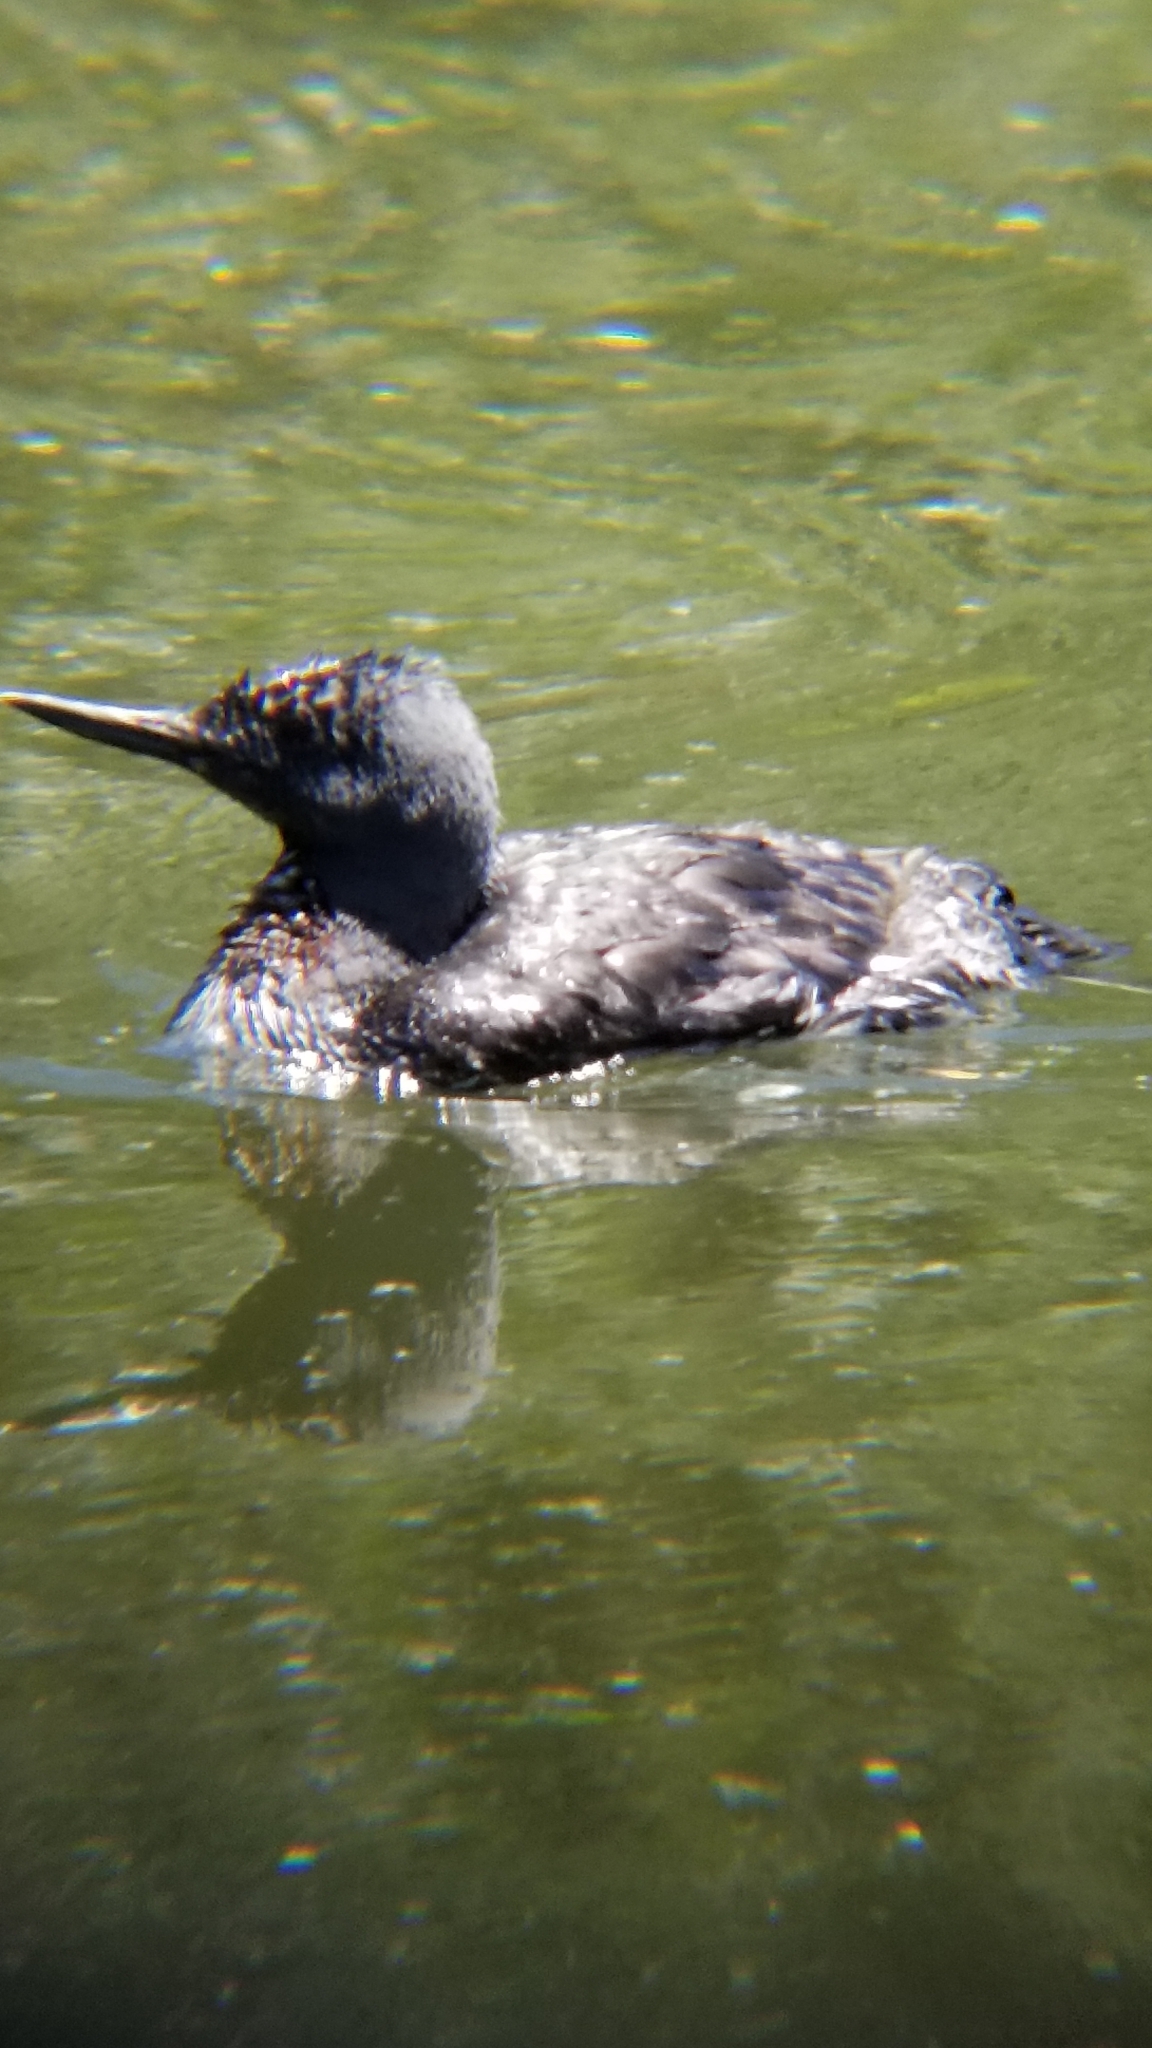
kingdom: Animalia
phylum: Chordata
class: Aves
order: Gaviiformes
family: Gaviidae
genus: Gavia
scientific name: Gavia stellata
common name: Red-throated loon
